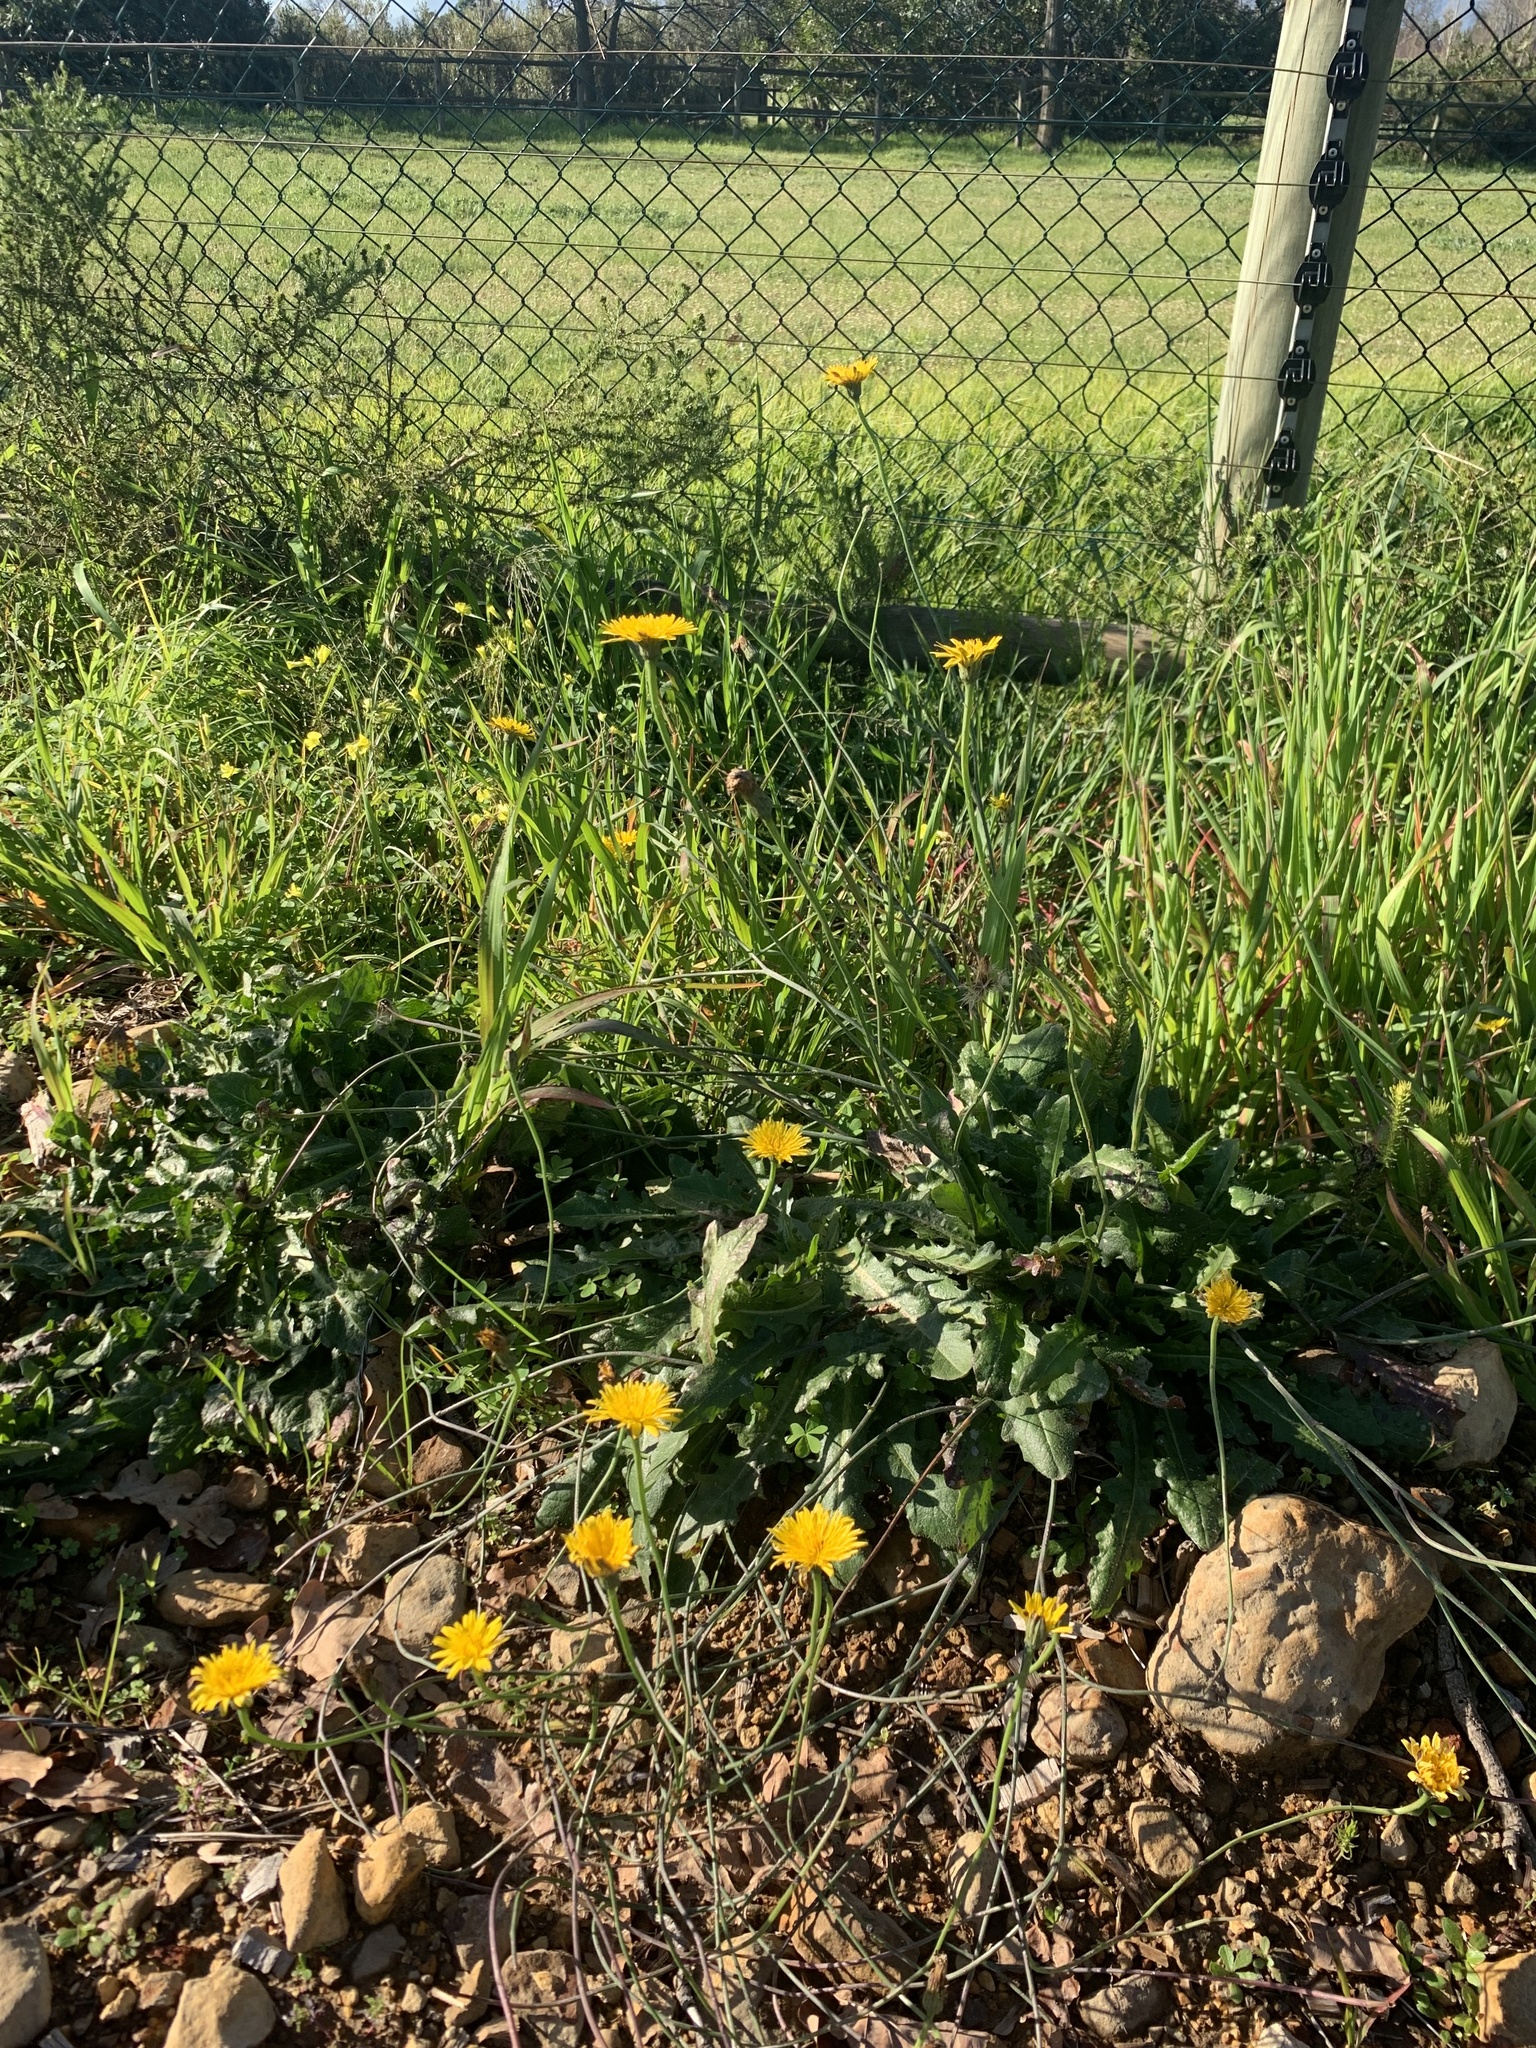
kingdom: Plantae
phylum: Tracheophyta
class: Magnoliopsida
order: Asterales
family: Asteraceae
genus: Hypochaeris
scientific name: Hypochaeris radicata
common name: Flatweed
